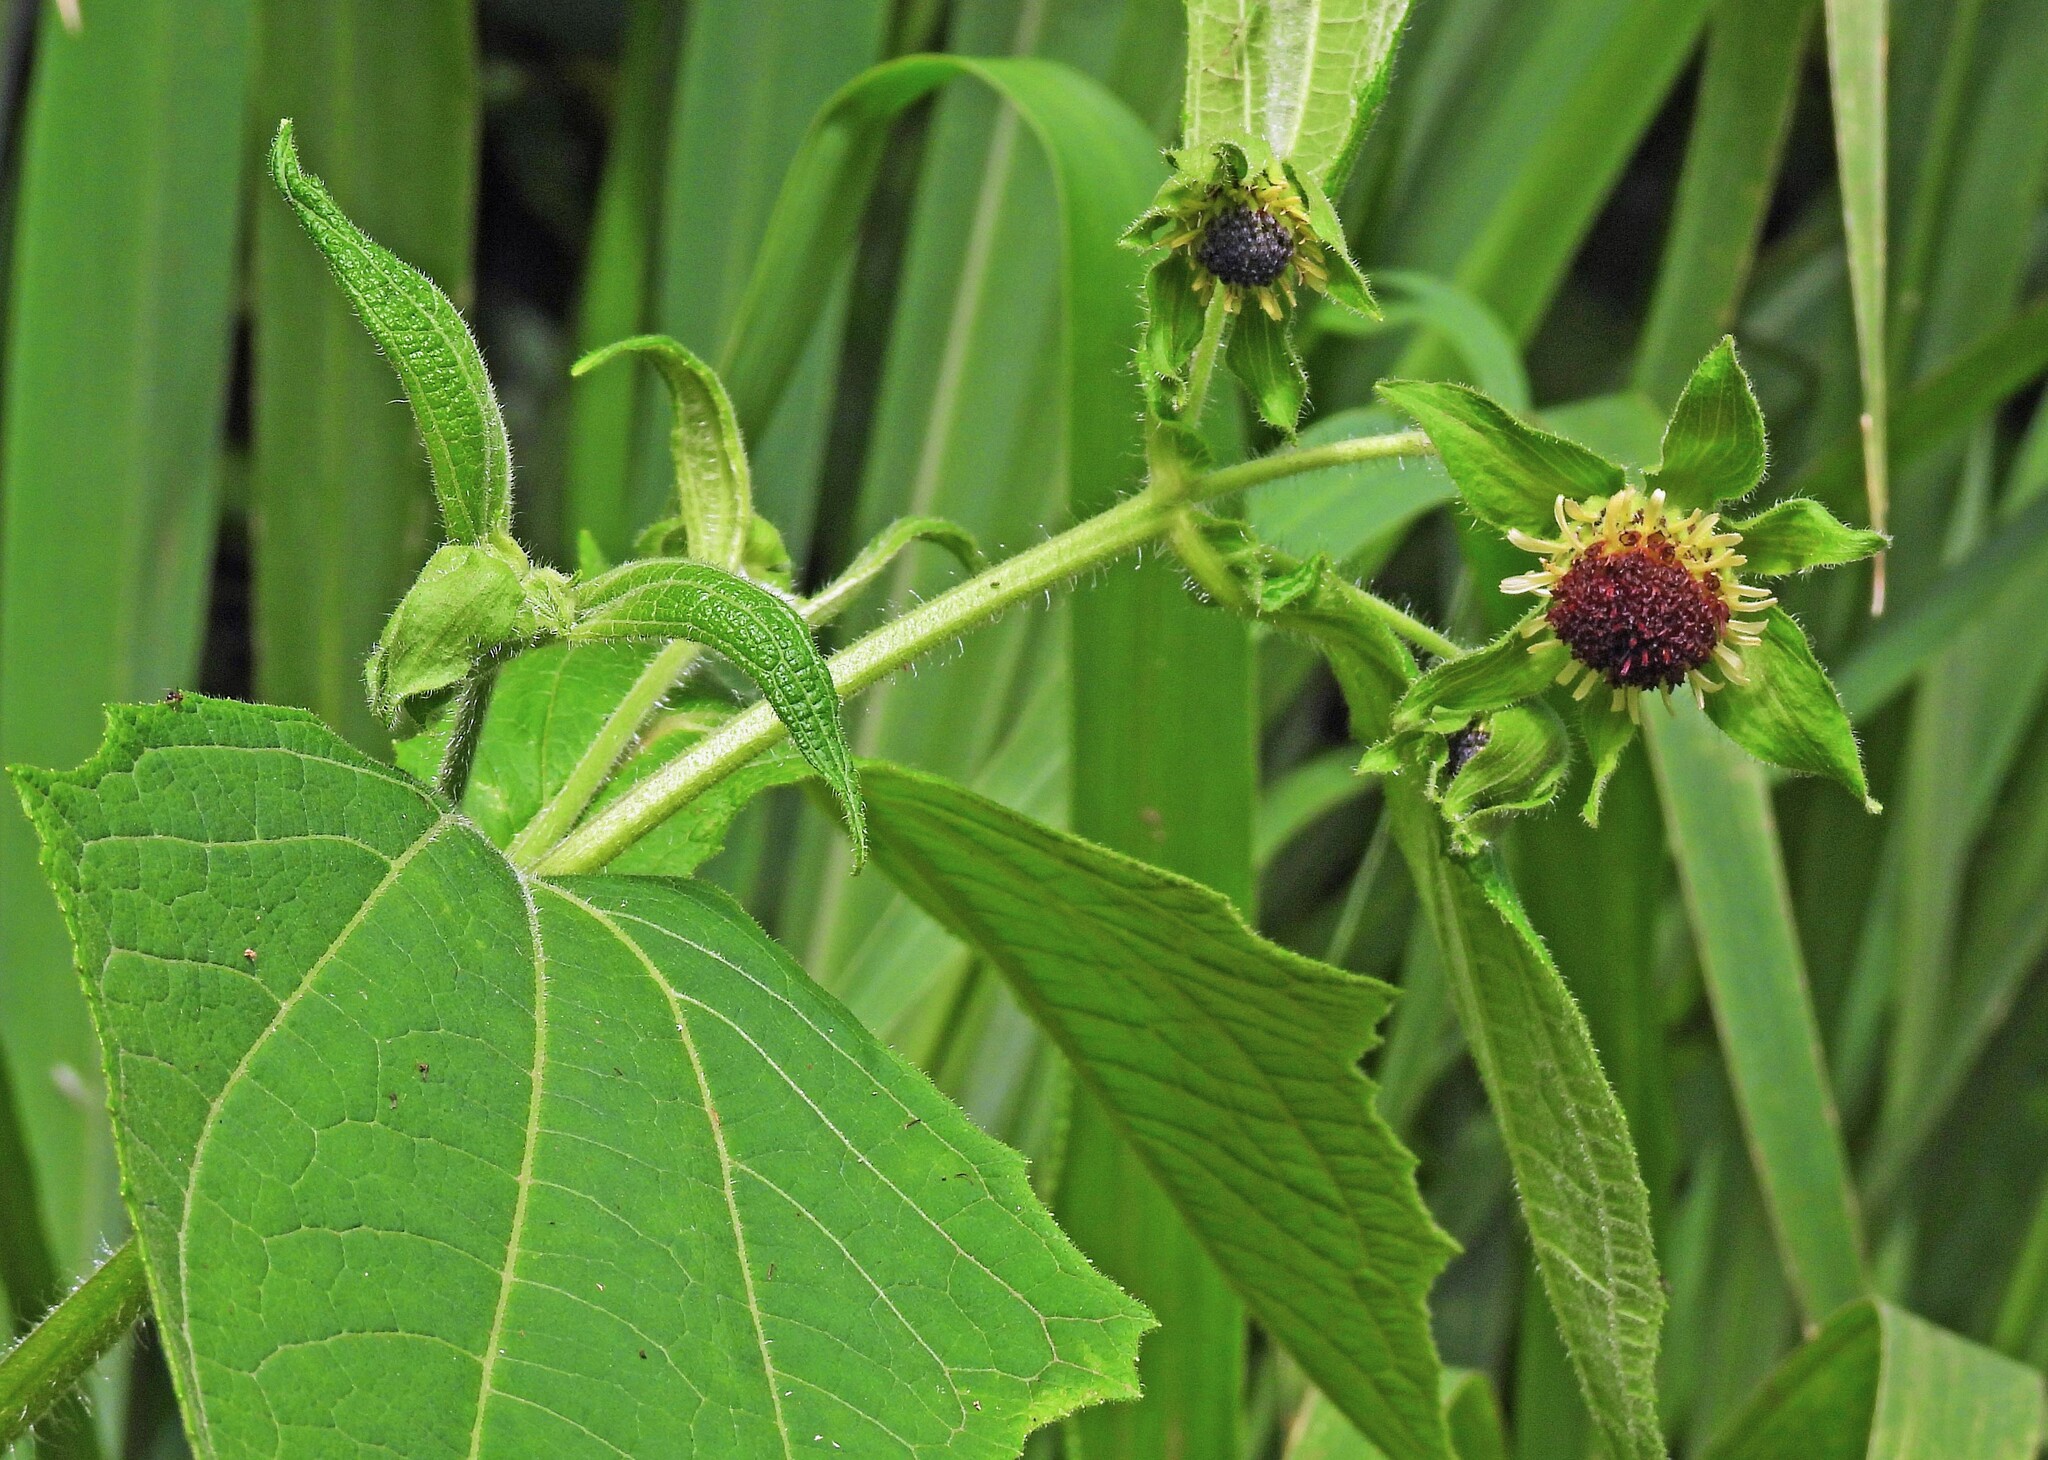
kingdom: Plantae
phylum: Tracheophyta
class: Magnoliopsida
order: Asterales
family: Asteraceae
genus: Smallanthus
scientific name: Smallanthus connatus
